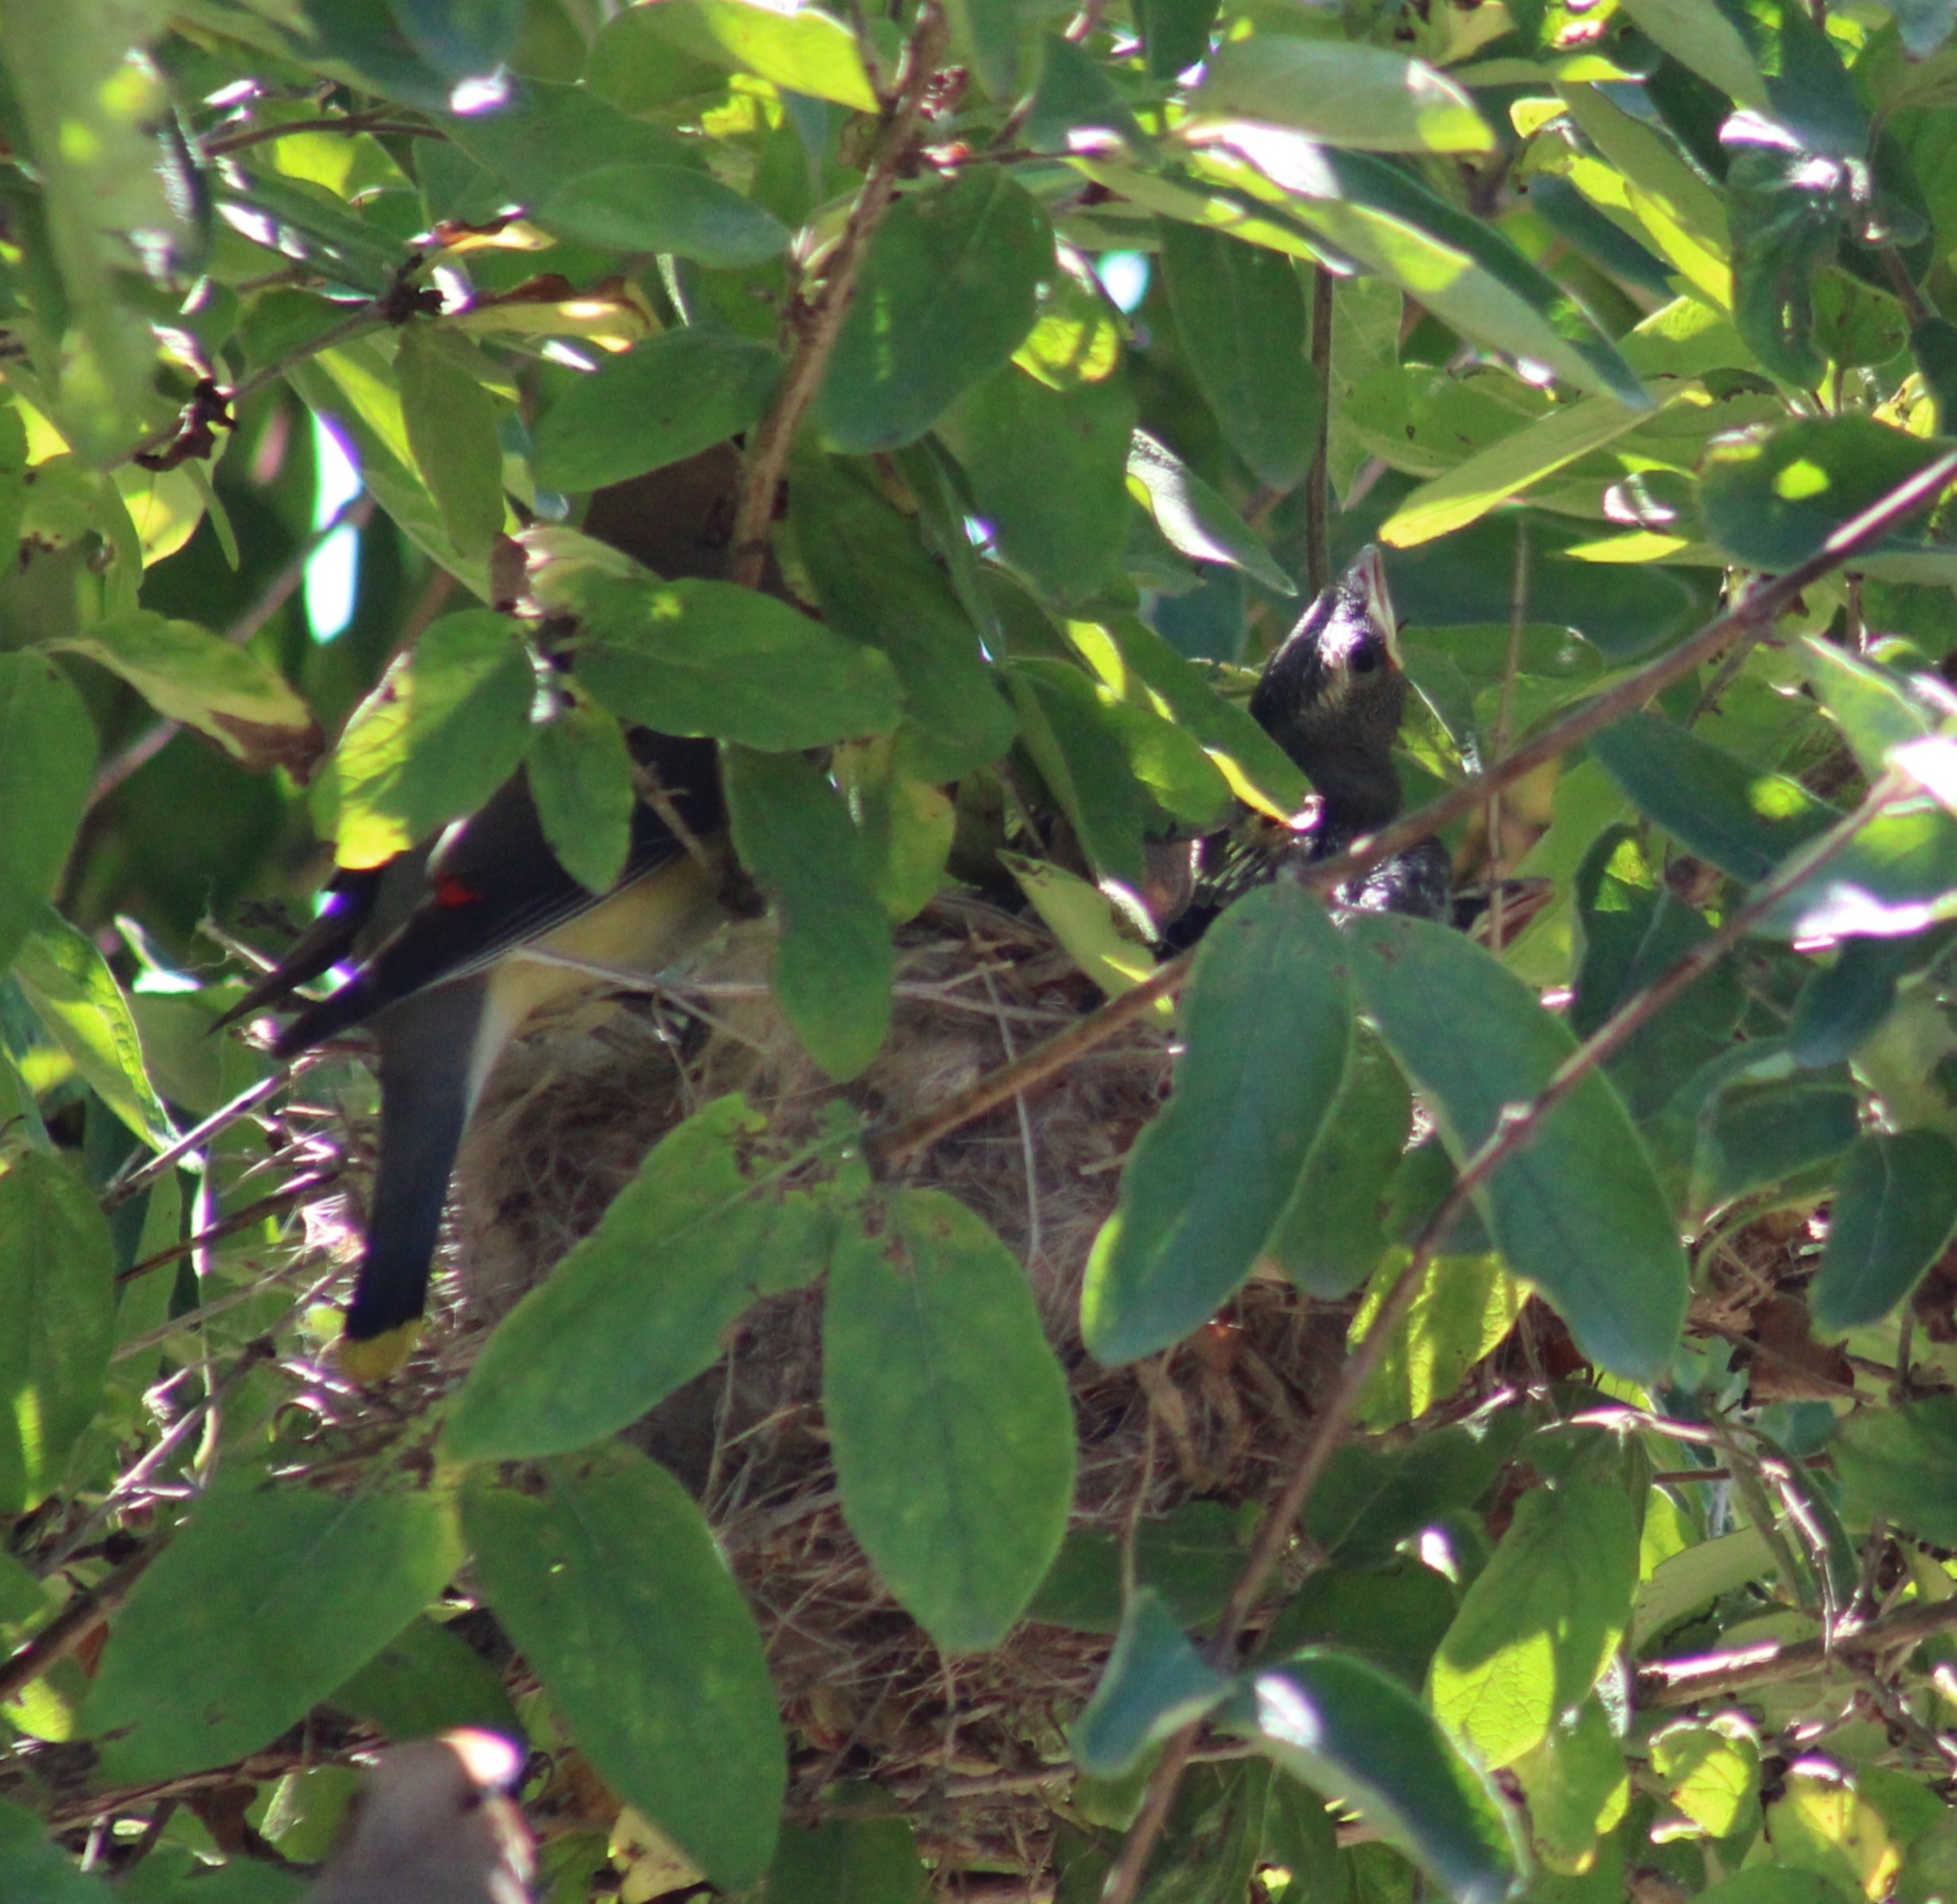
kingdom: Animalia
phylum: Chordata
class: Aves
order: Passeriformes
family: Bombycillidae
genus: Bombycilla
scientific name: Bombycilla cedrorum
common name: Cedar waxwing
